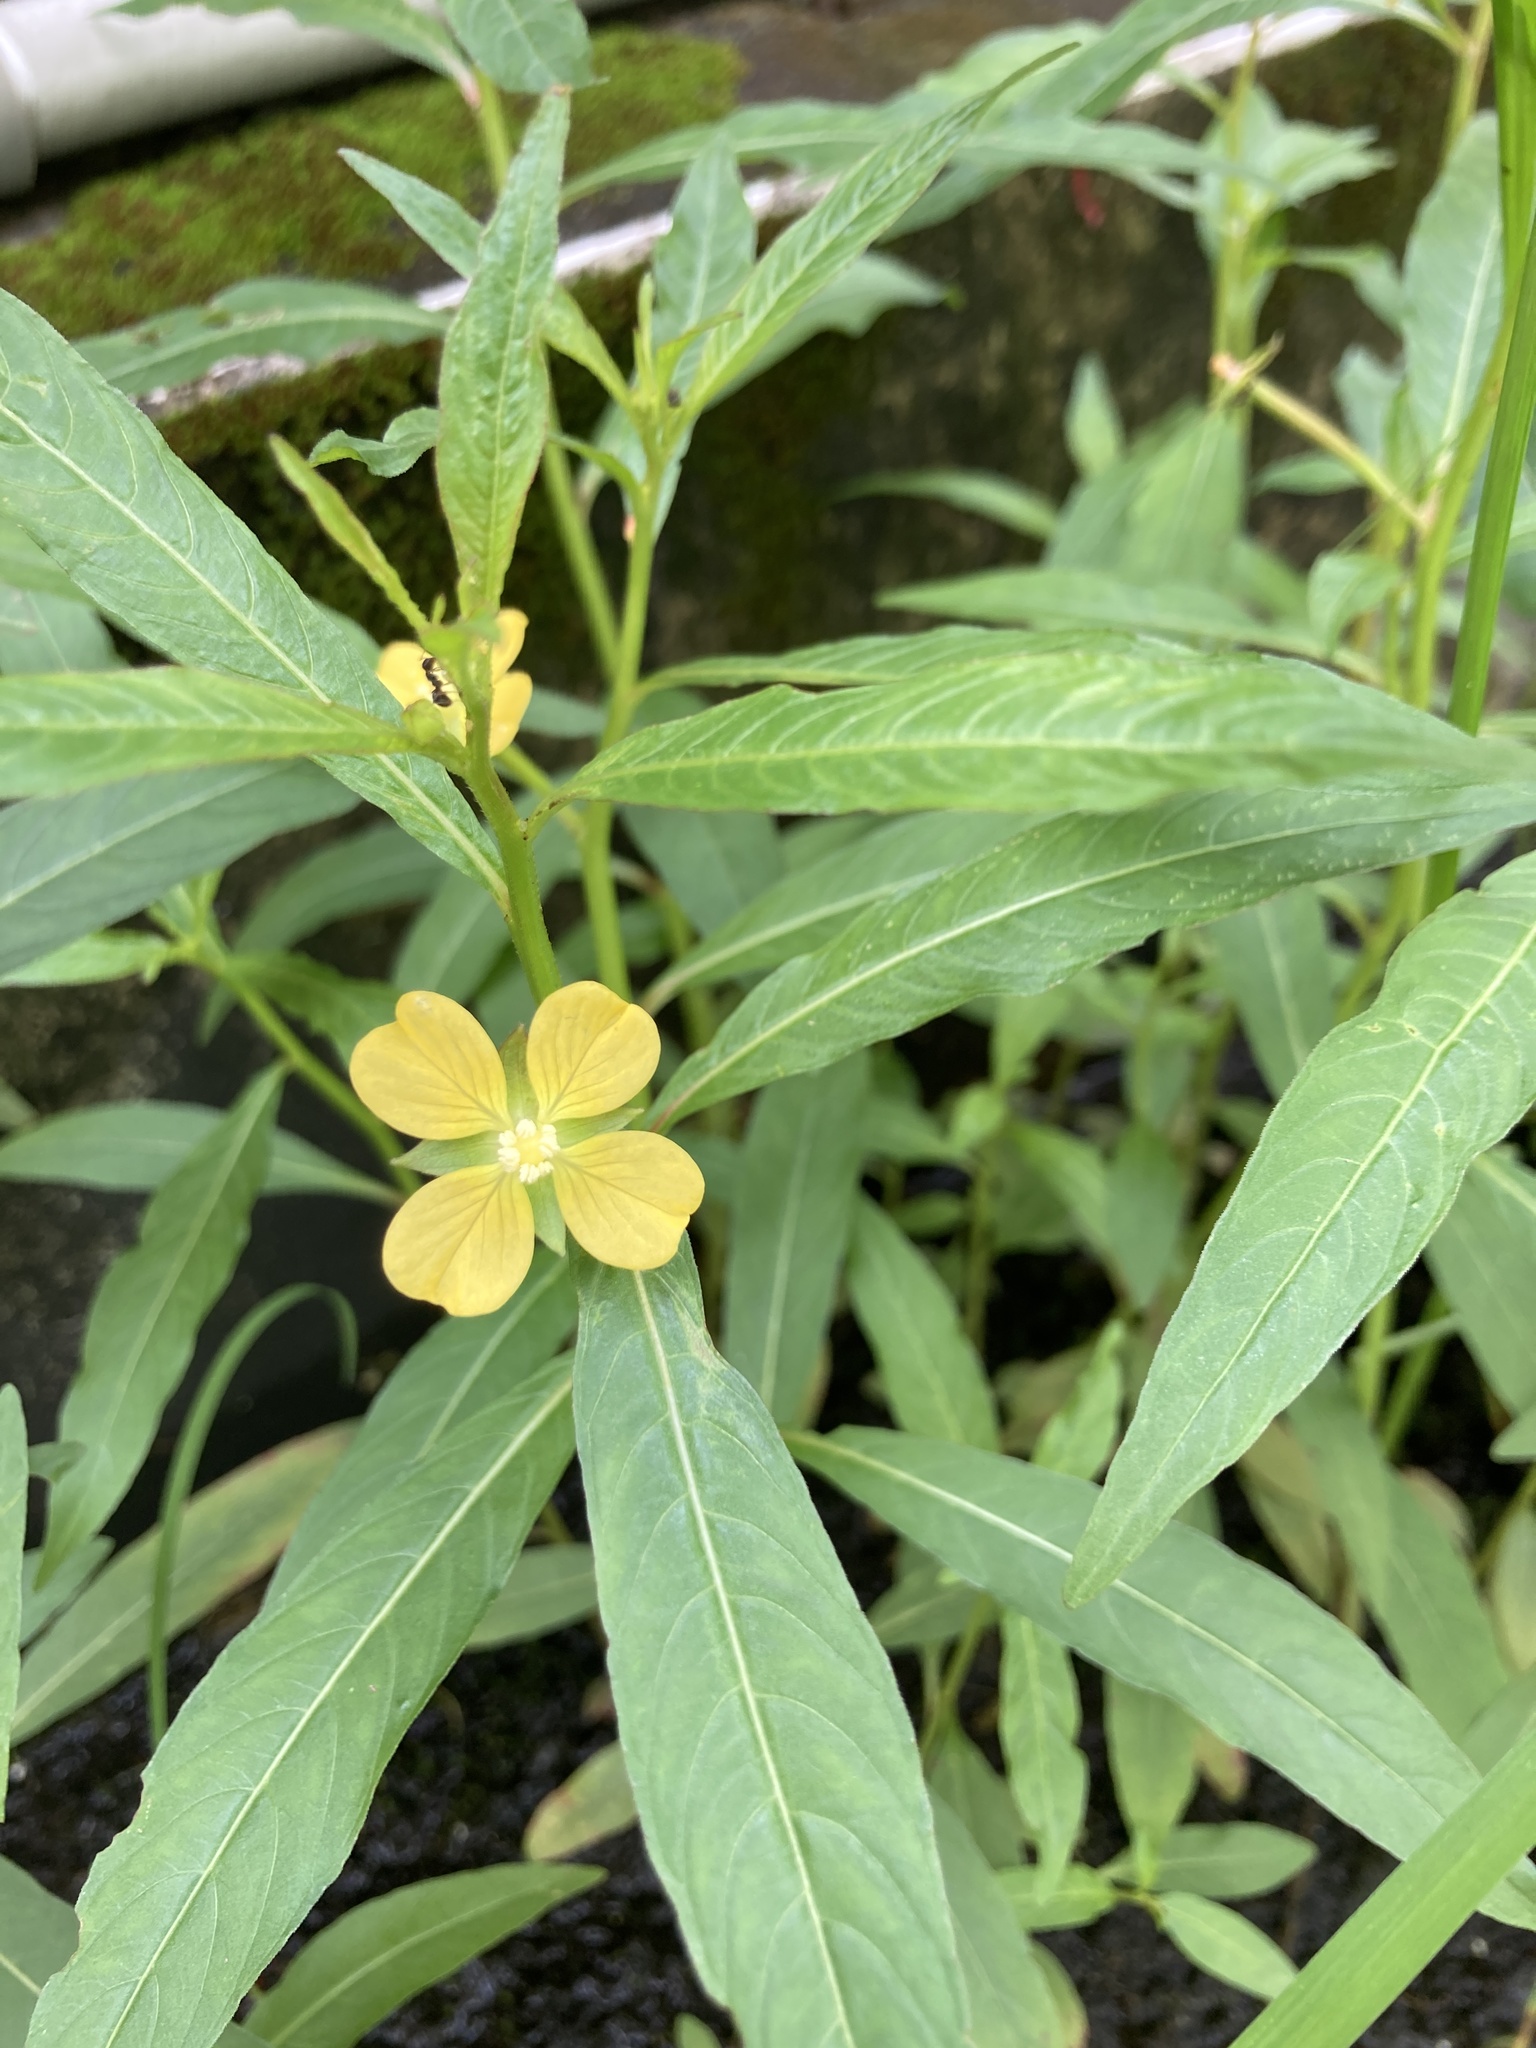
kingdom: Plantae
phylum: Tracheophyta
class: Magnoliopsida
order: Myrtales
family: Onagraceae
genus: Ludwigia
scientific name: Ludwigia octovalvis
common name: Water-primrose
